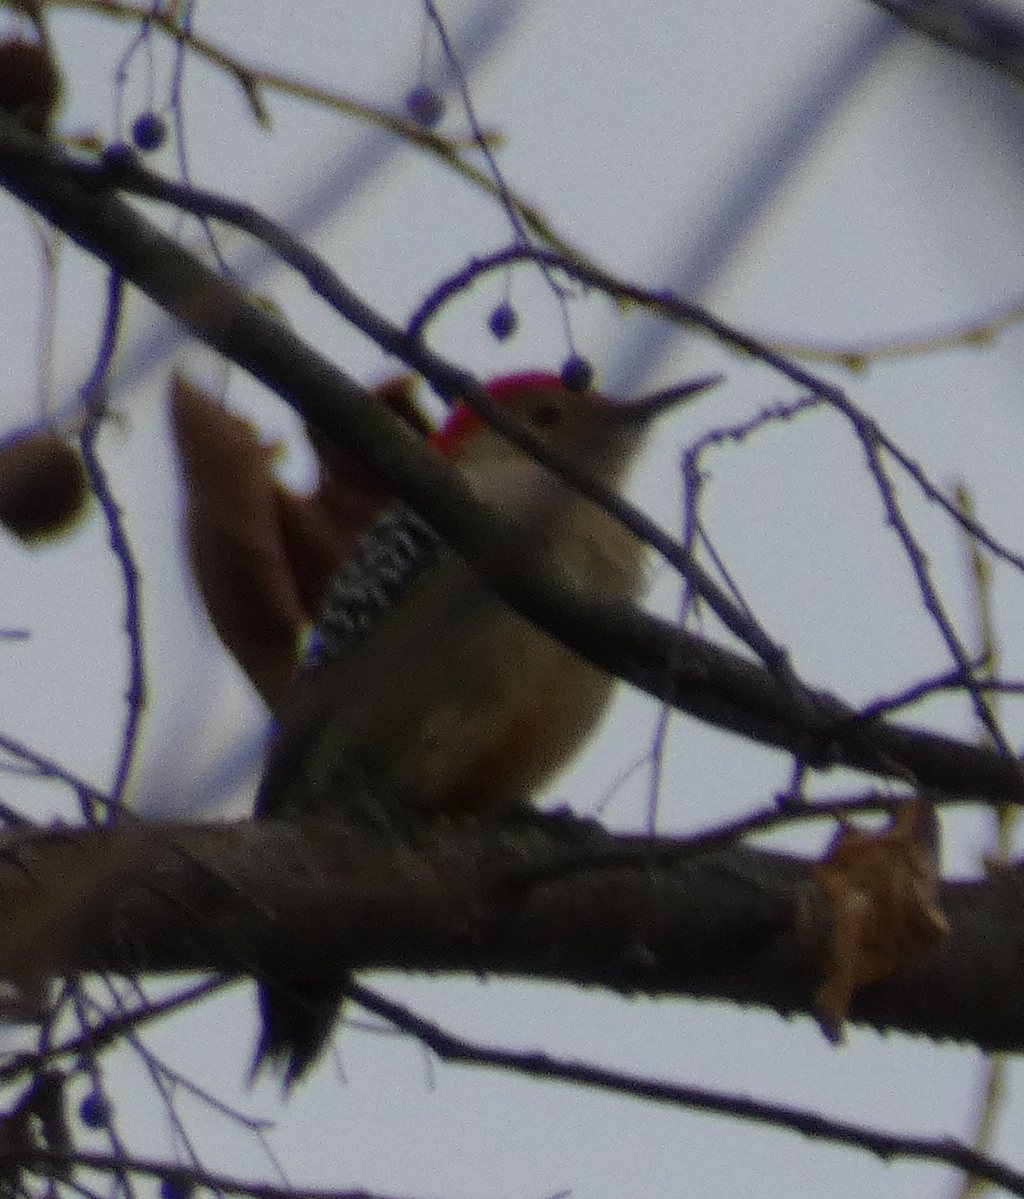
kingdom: Animalia
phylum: Chordata
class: Aves
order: Piciformes
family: Picidae
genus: Melanerpes
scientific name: Melanerpes carolinus
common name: Red-bellied woodpecker
